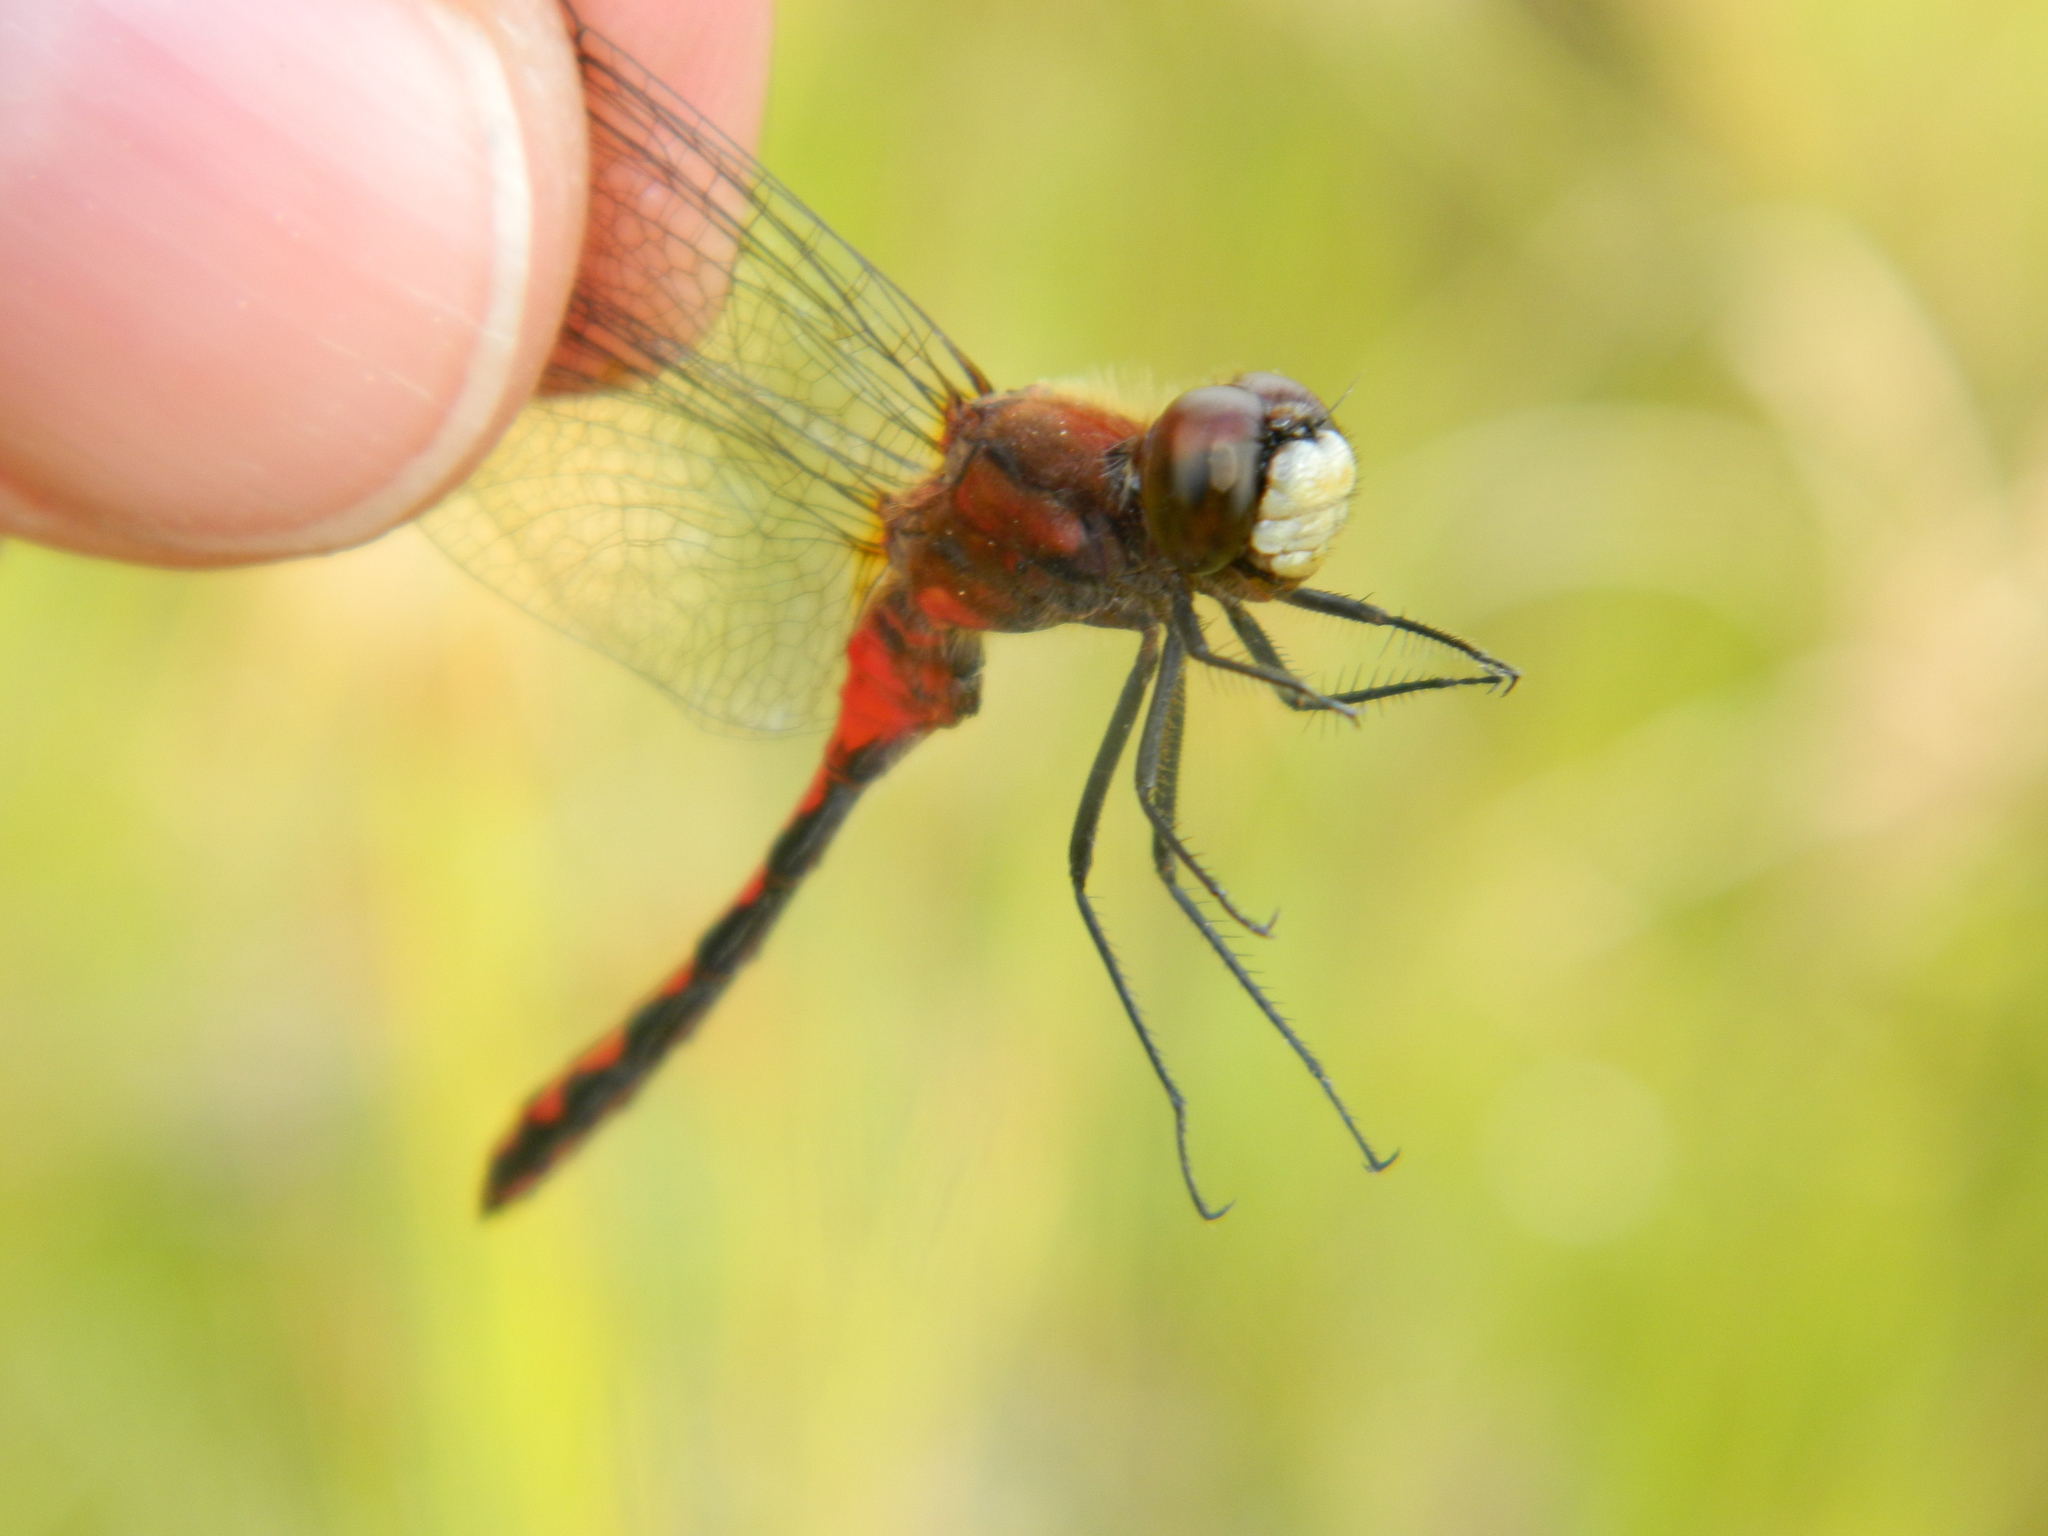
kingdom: Animalia
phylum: Arthropoda
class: Insecta
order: Odonata
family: Libellulidae
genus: Sympetrum
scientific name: Sympetrum obtrusum
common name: White-faced meadowhawk
